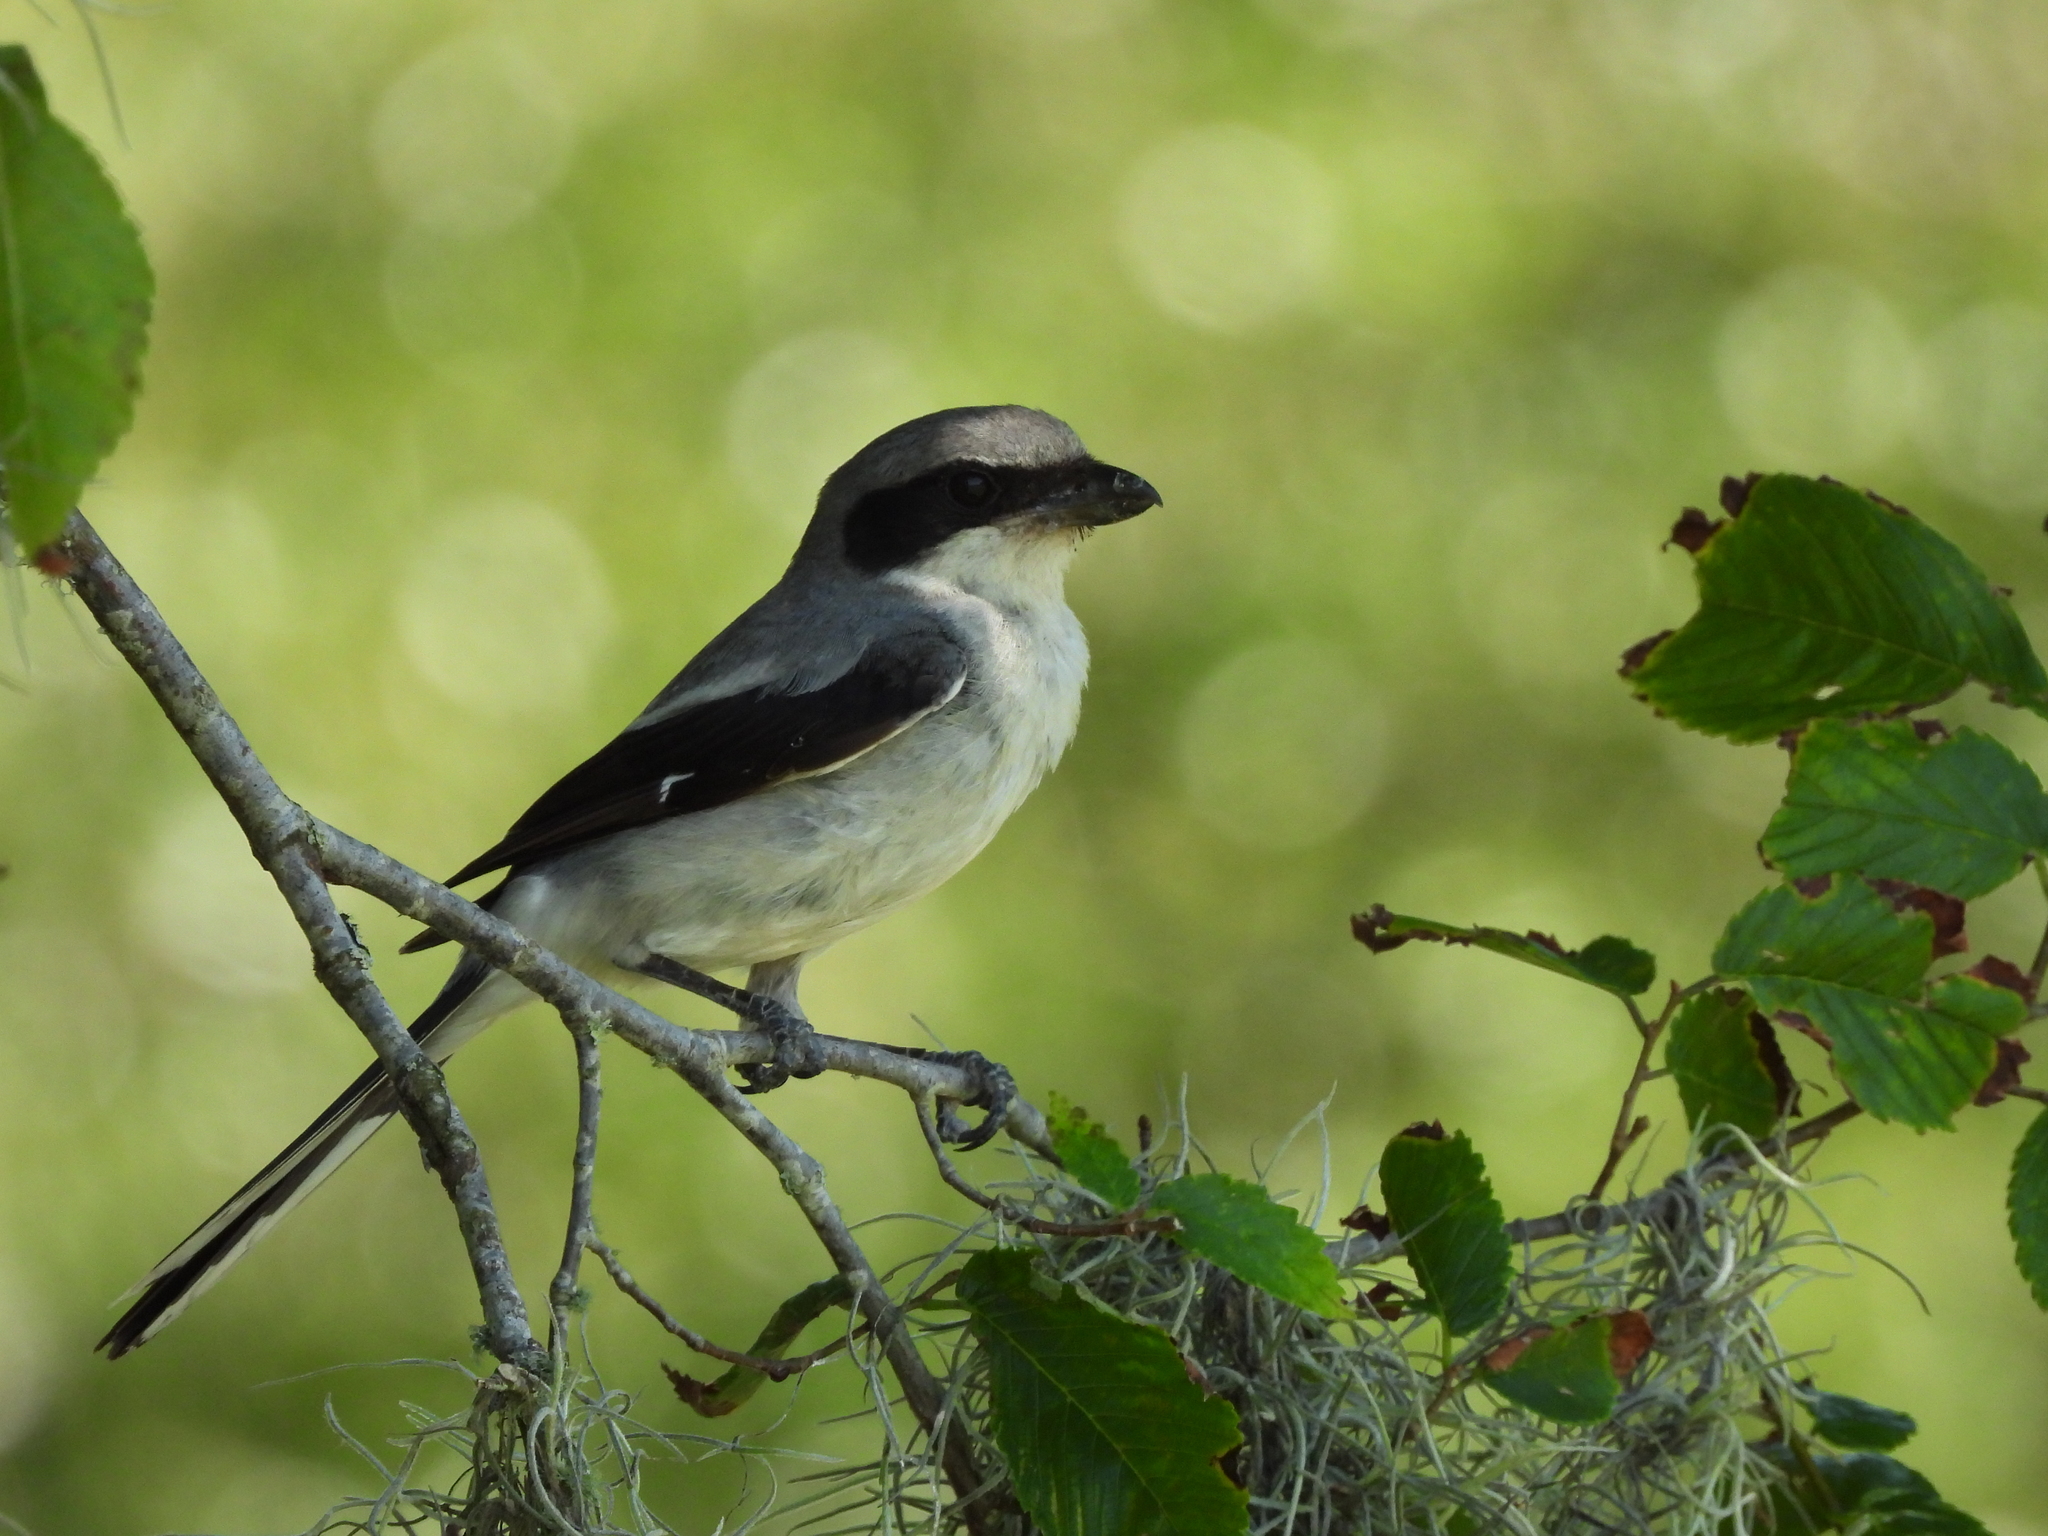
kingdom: Animalia
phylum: Chordata
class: Aves
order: Passeriformes
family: Laniidae
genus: Lanius
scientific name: Lanius ludovicianus
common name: Loggerhead shrike
